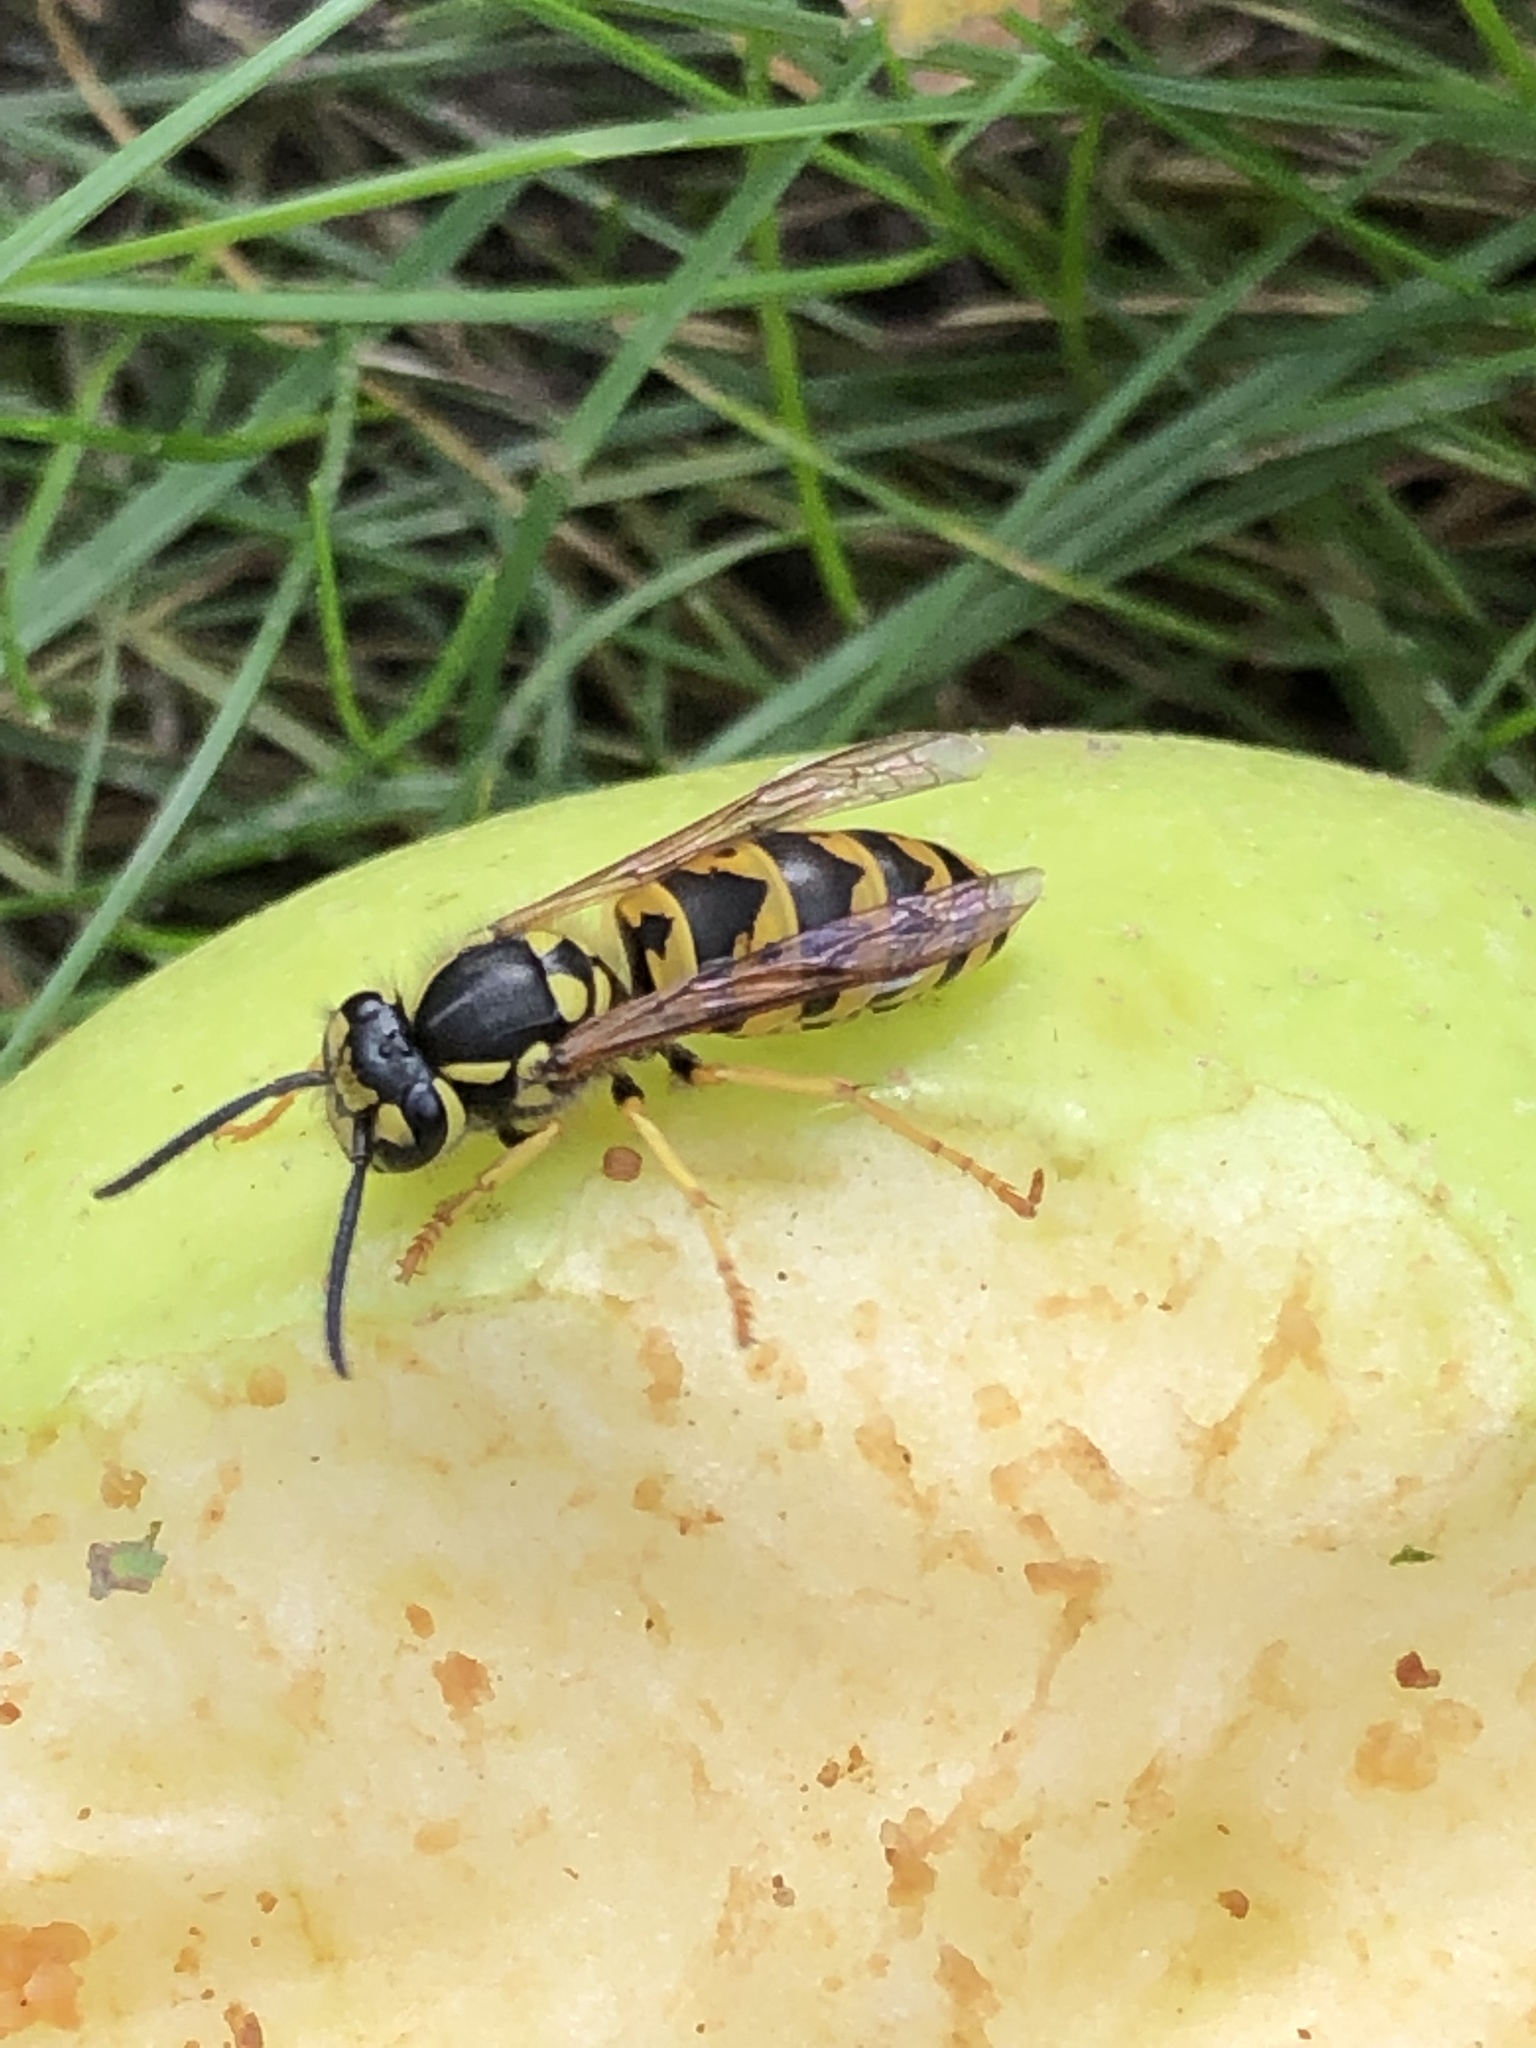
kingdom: Animalia
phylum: Arthropoda
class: Insecta
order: Hymenoptera
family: Vespidae
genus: Vespula
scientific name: Vespula germanica
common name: German wasp
